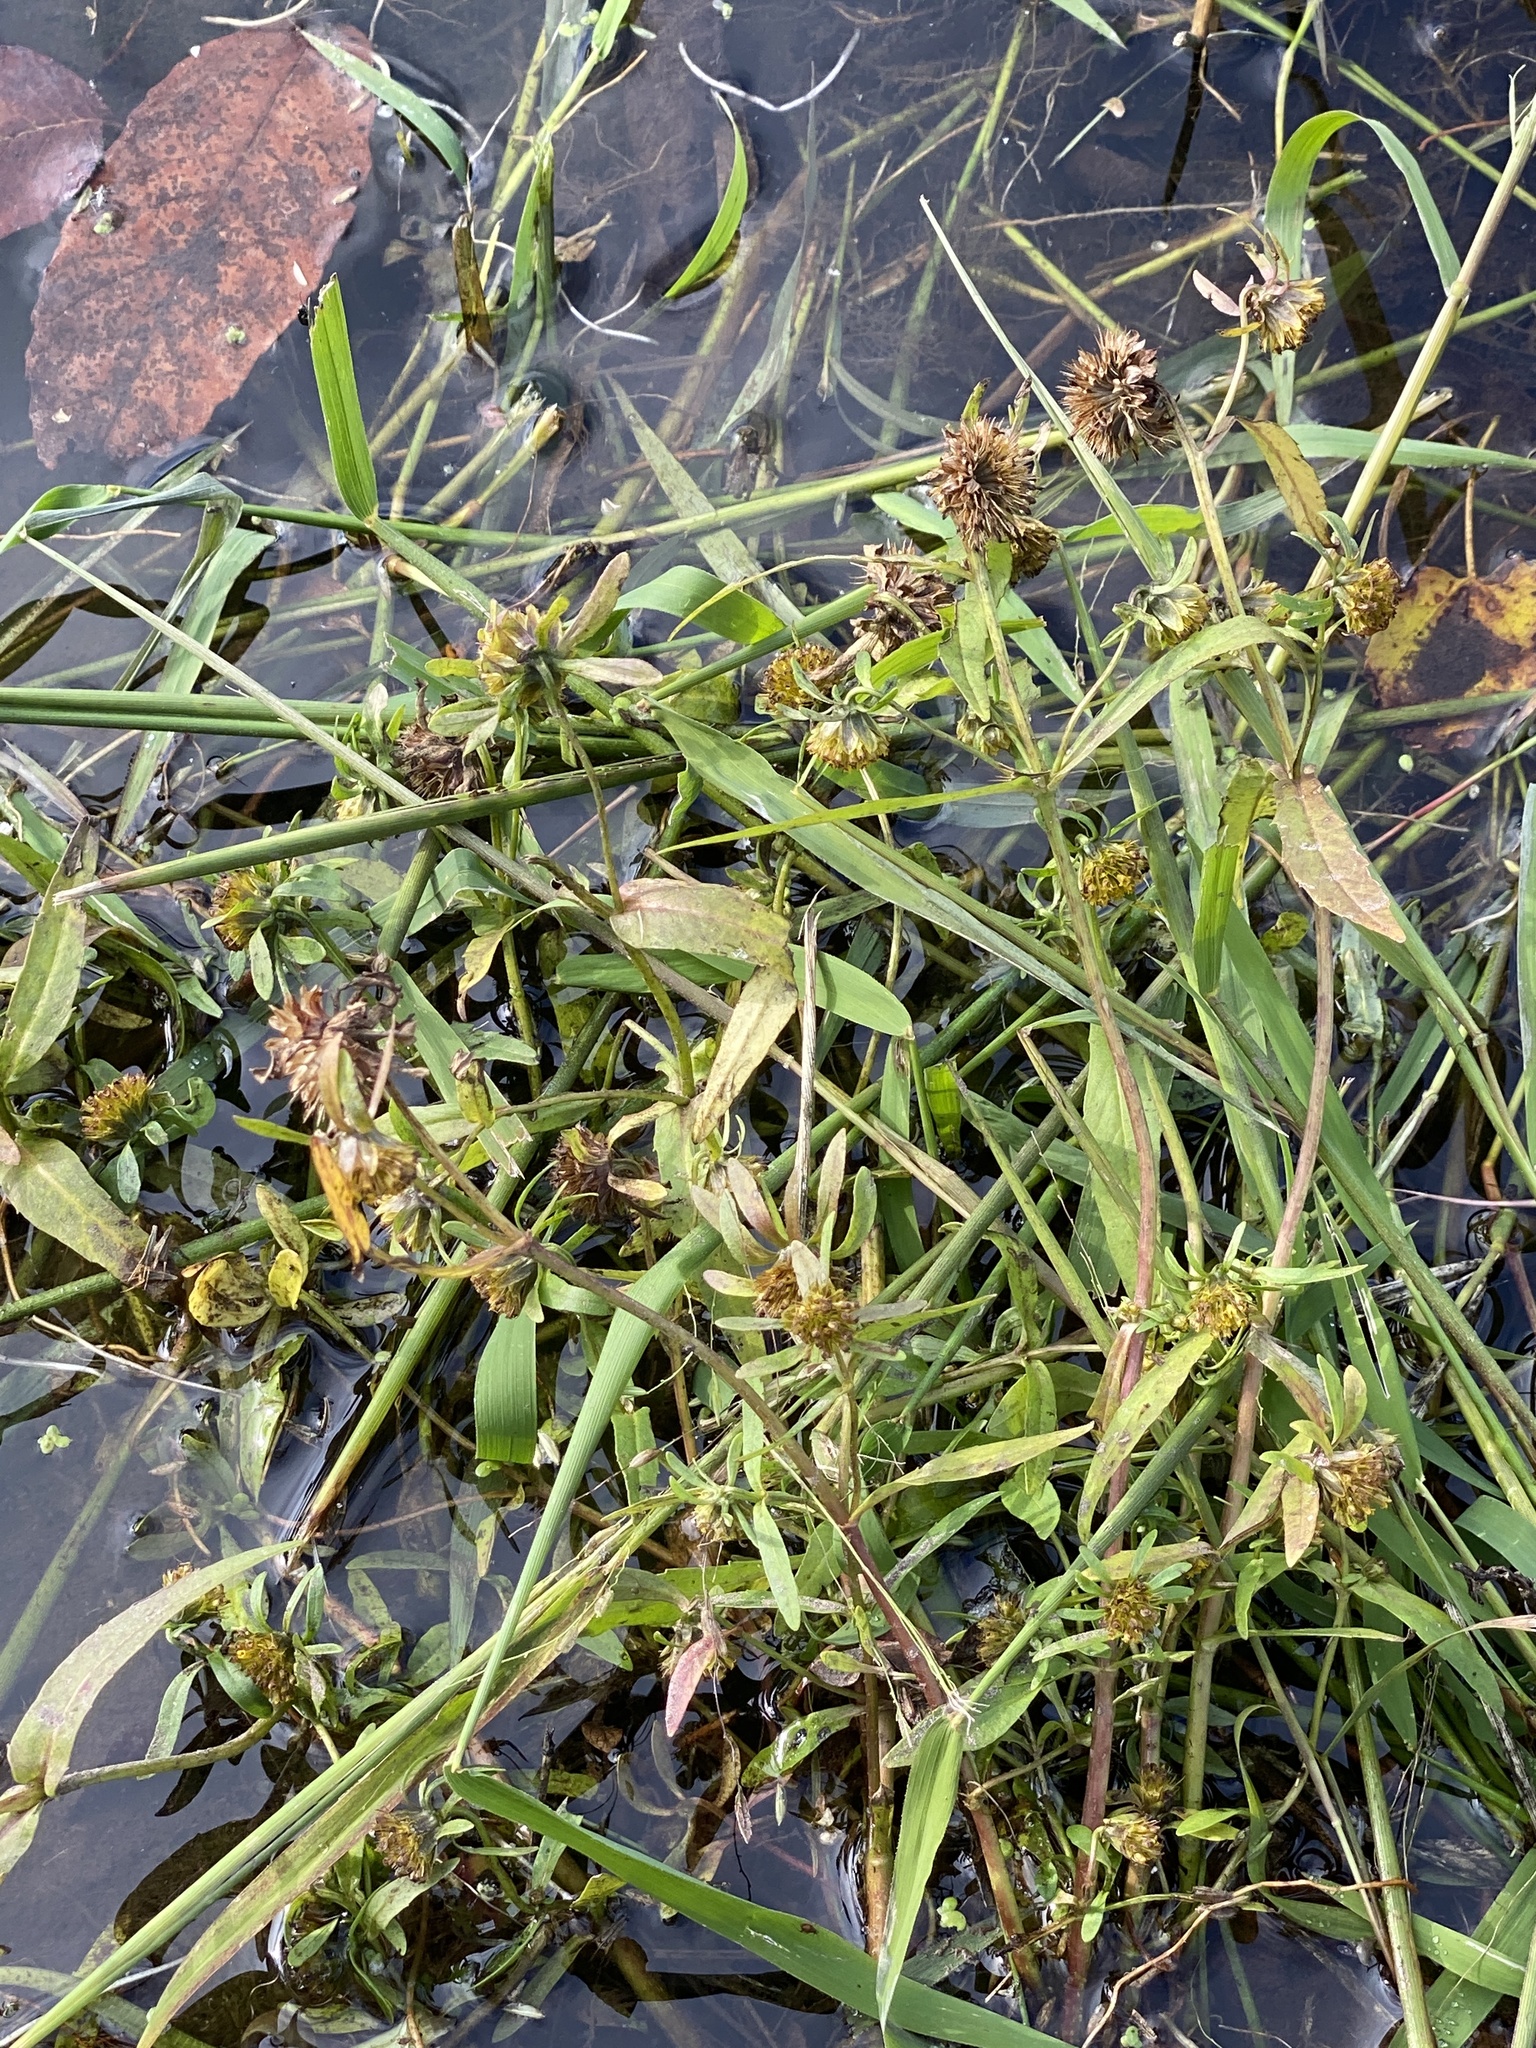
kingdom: Plantae
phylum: Tracheophyta
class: Magnoliopsida
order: Asterales
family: Asteraceae
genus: Bidens
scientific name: Bidens cernua
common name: Nodding bur-marigold
